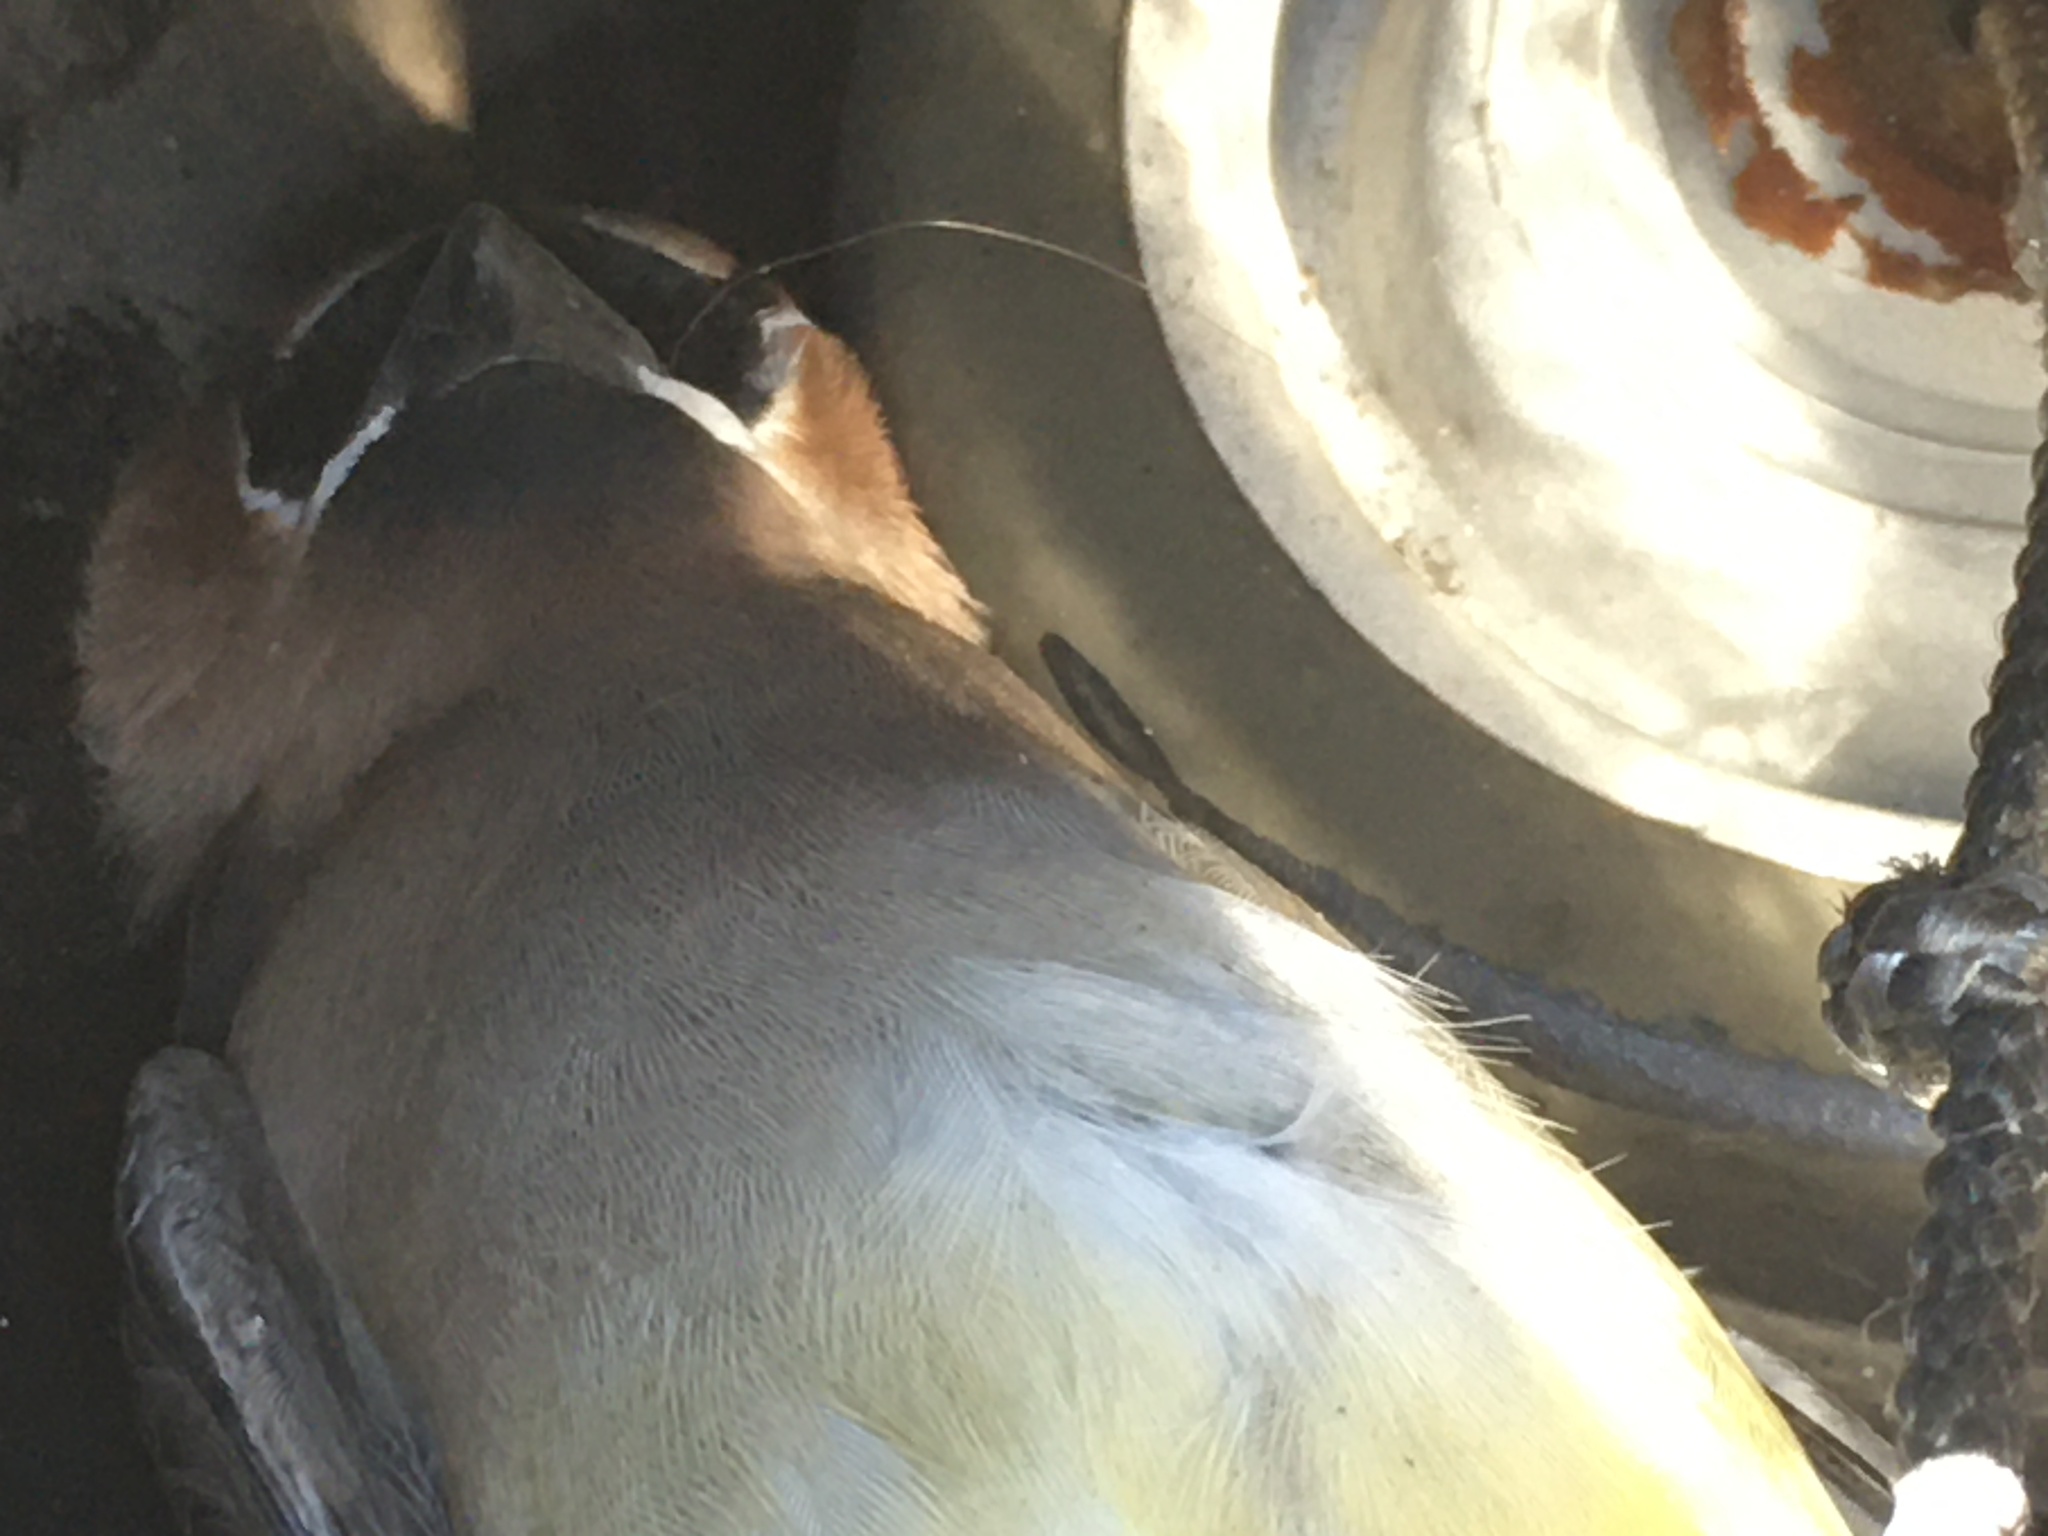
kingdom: Animalia
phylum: Chordata
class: Aves
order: Passeriformes
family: Bombycillidae
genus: Bombycilla
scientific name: Bombycilla cedrorum
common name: Cedar waxwing
